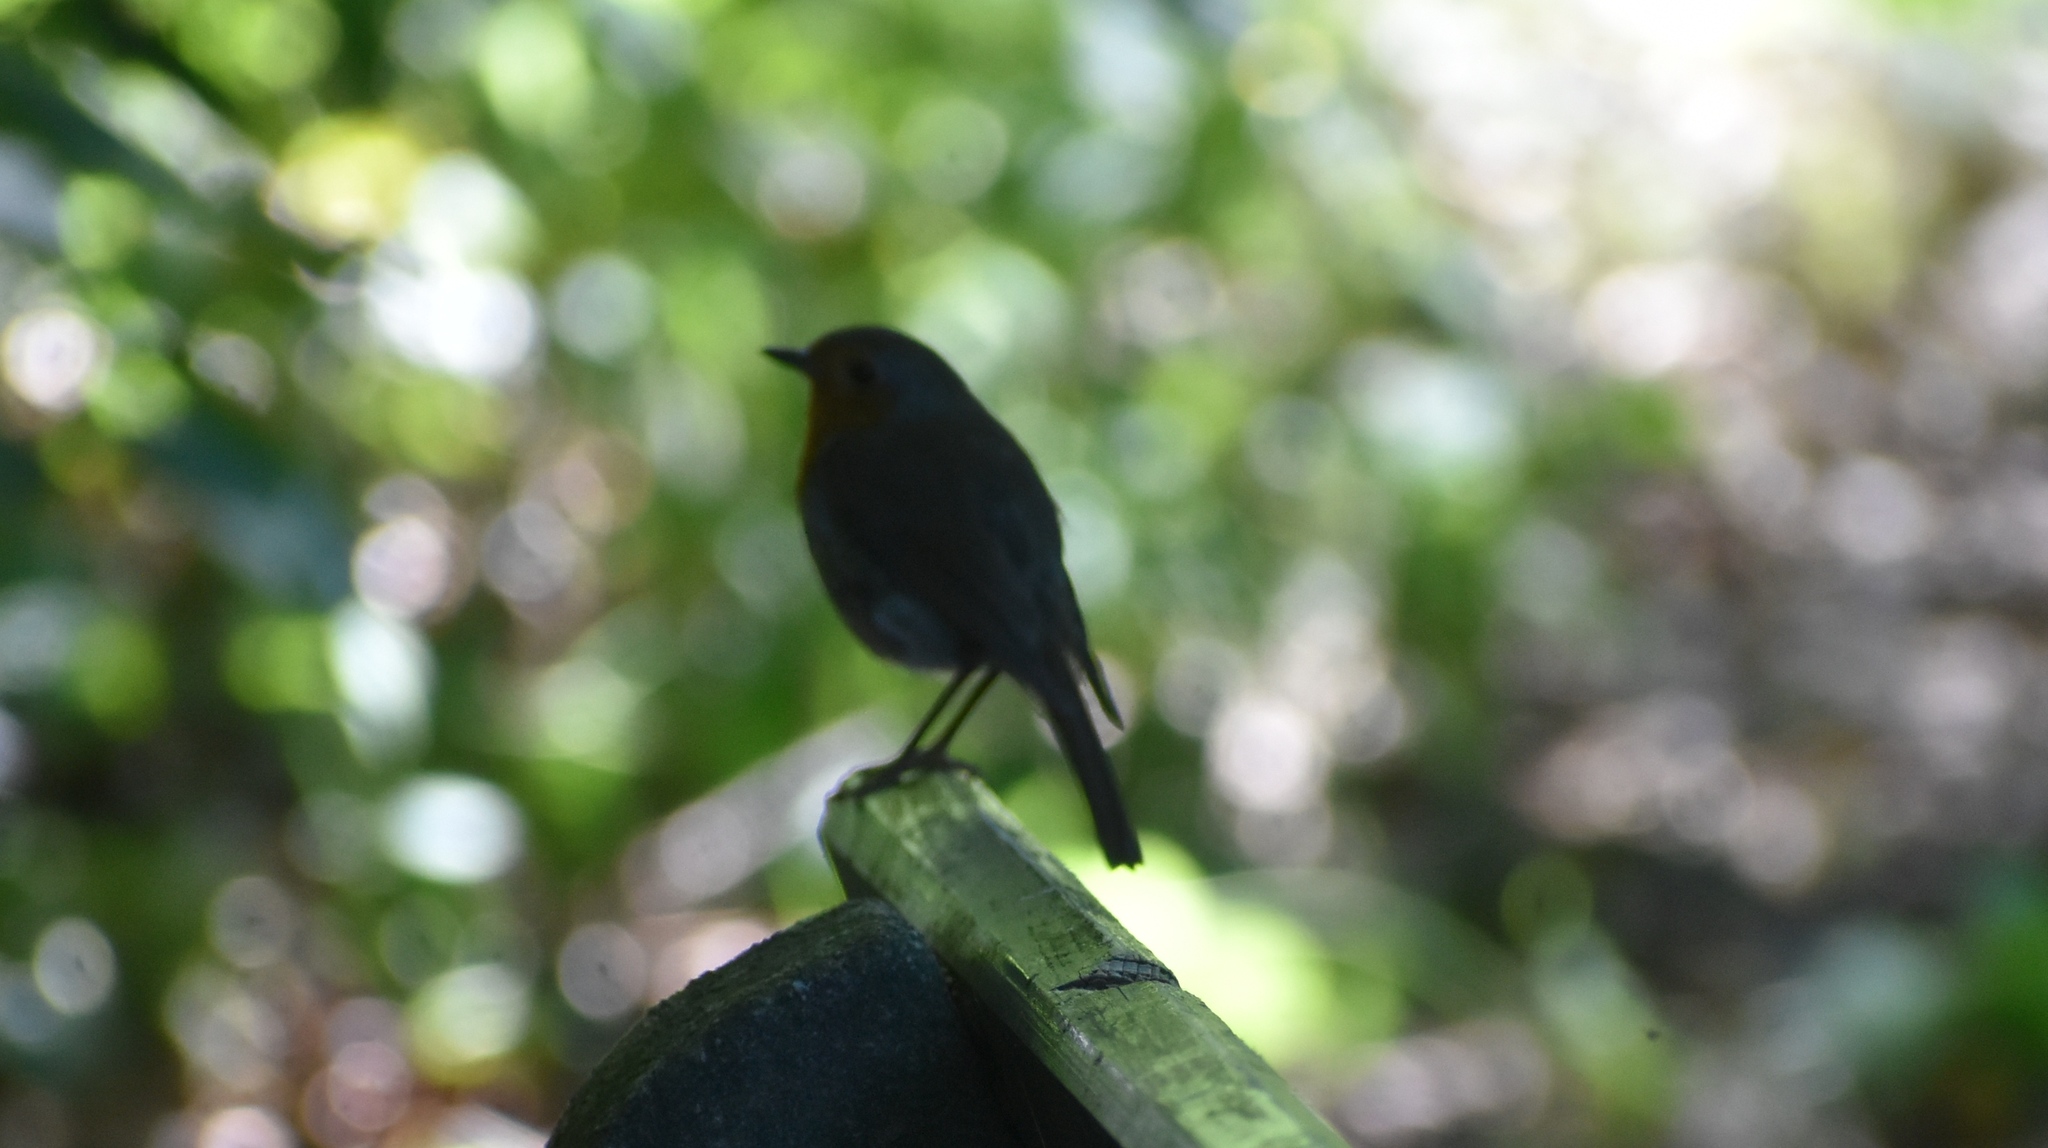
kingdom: Animalia
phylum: Chordata
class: Aves
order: Passeriformes
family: Muscicapidae
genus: Erithacus
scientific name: Erithacus rubecula
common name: European robin
